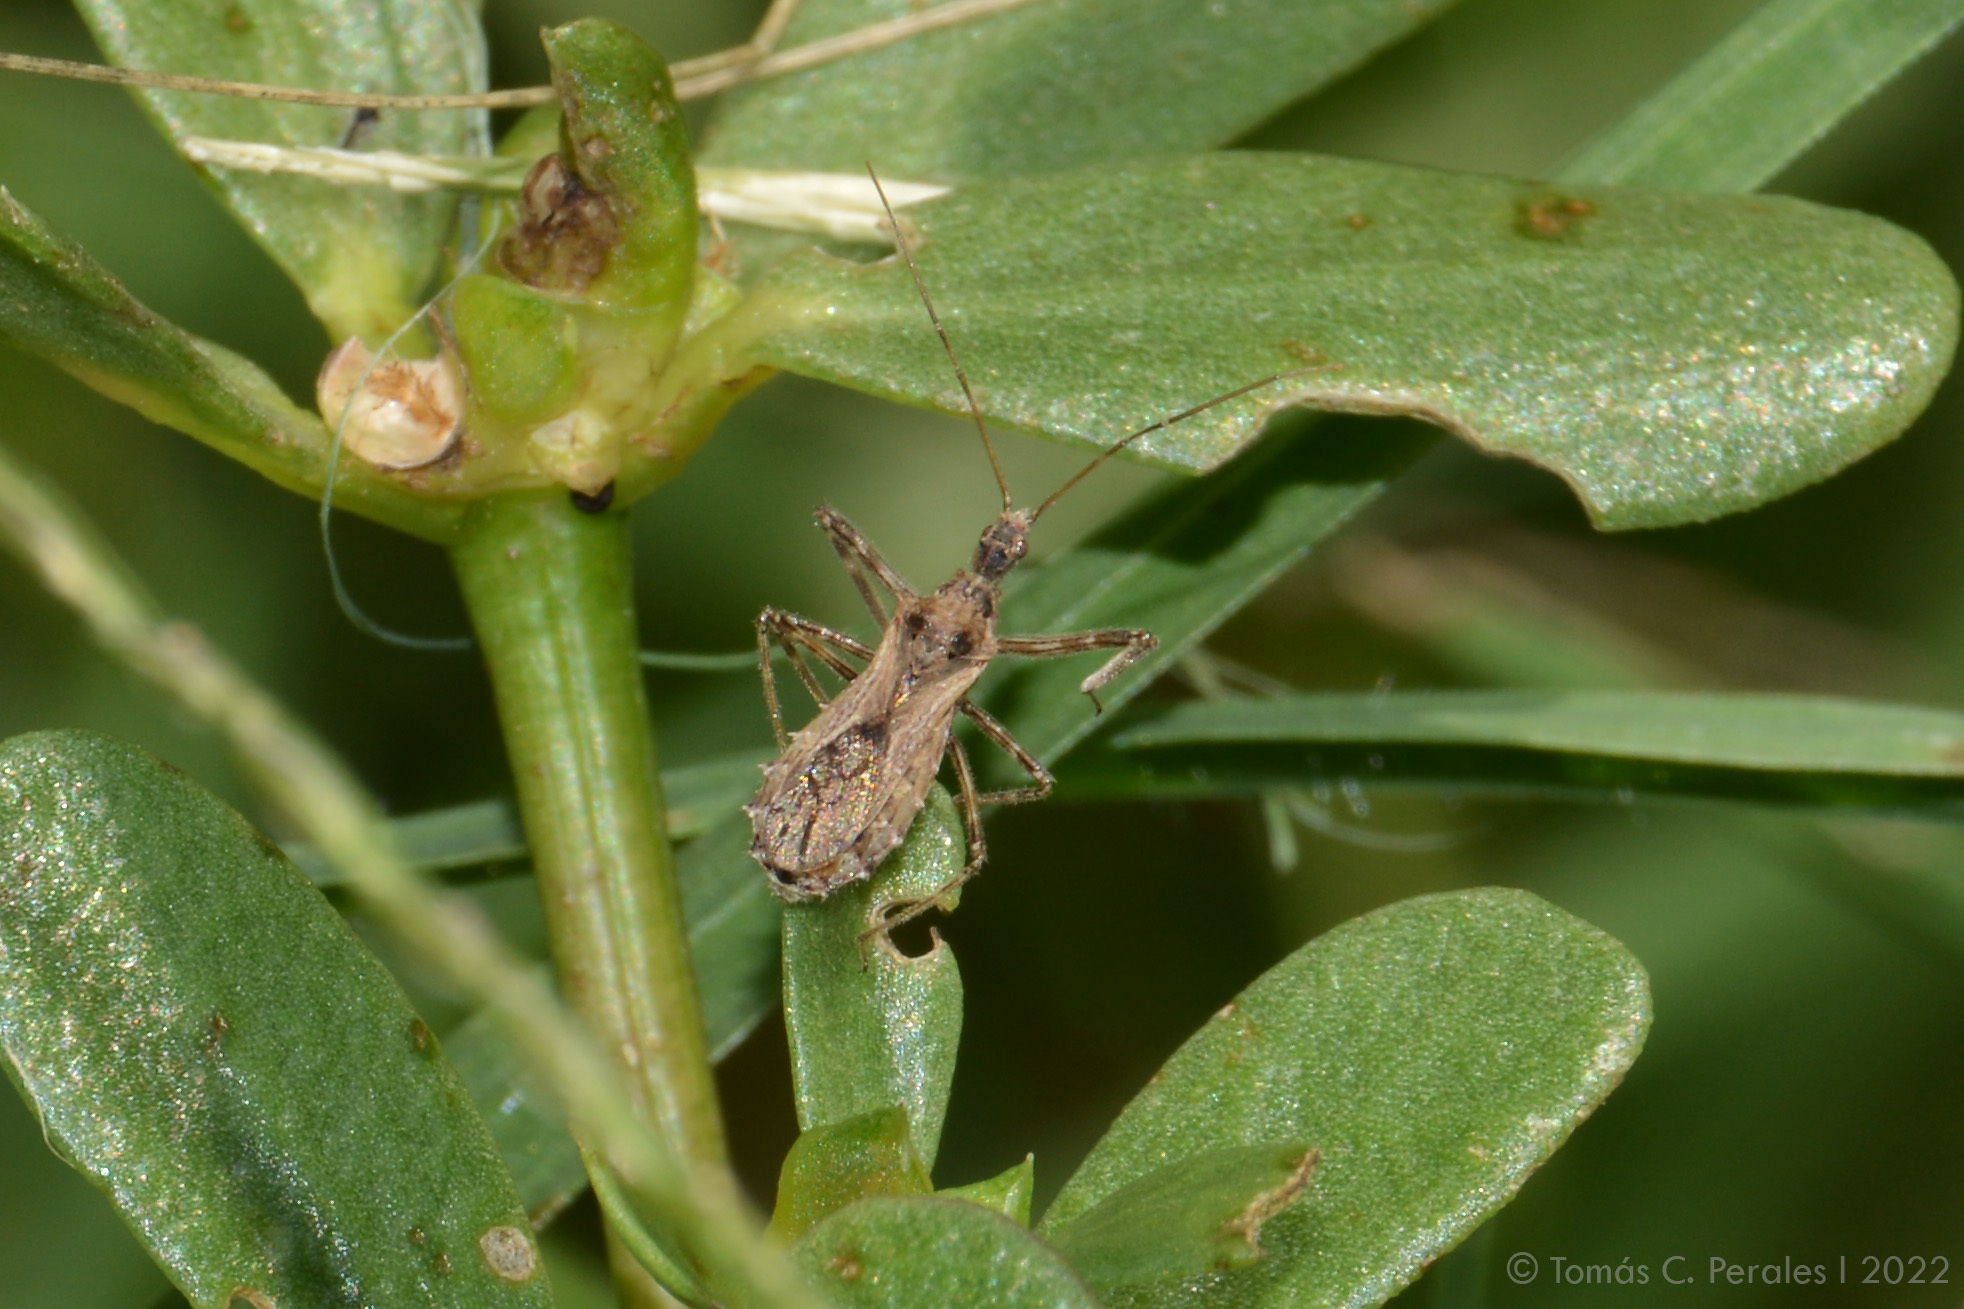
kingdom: Animalia
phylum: Arthropoda
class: Insecta
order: Hemiptera
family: Reduviidae
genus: Atrachelus
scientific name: Atrachelus cinereus
